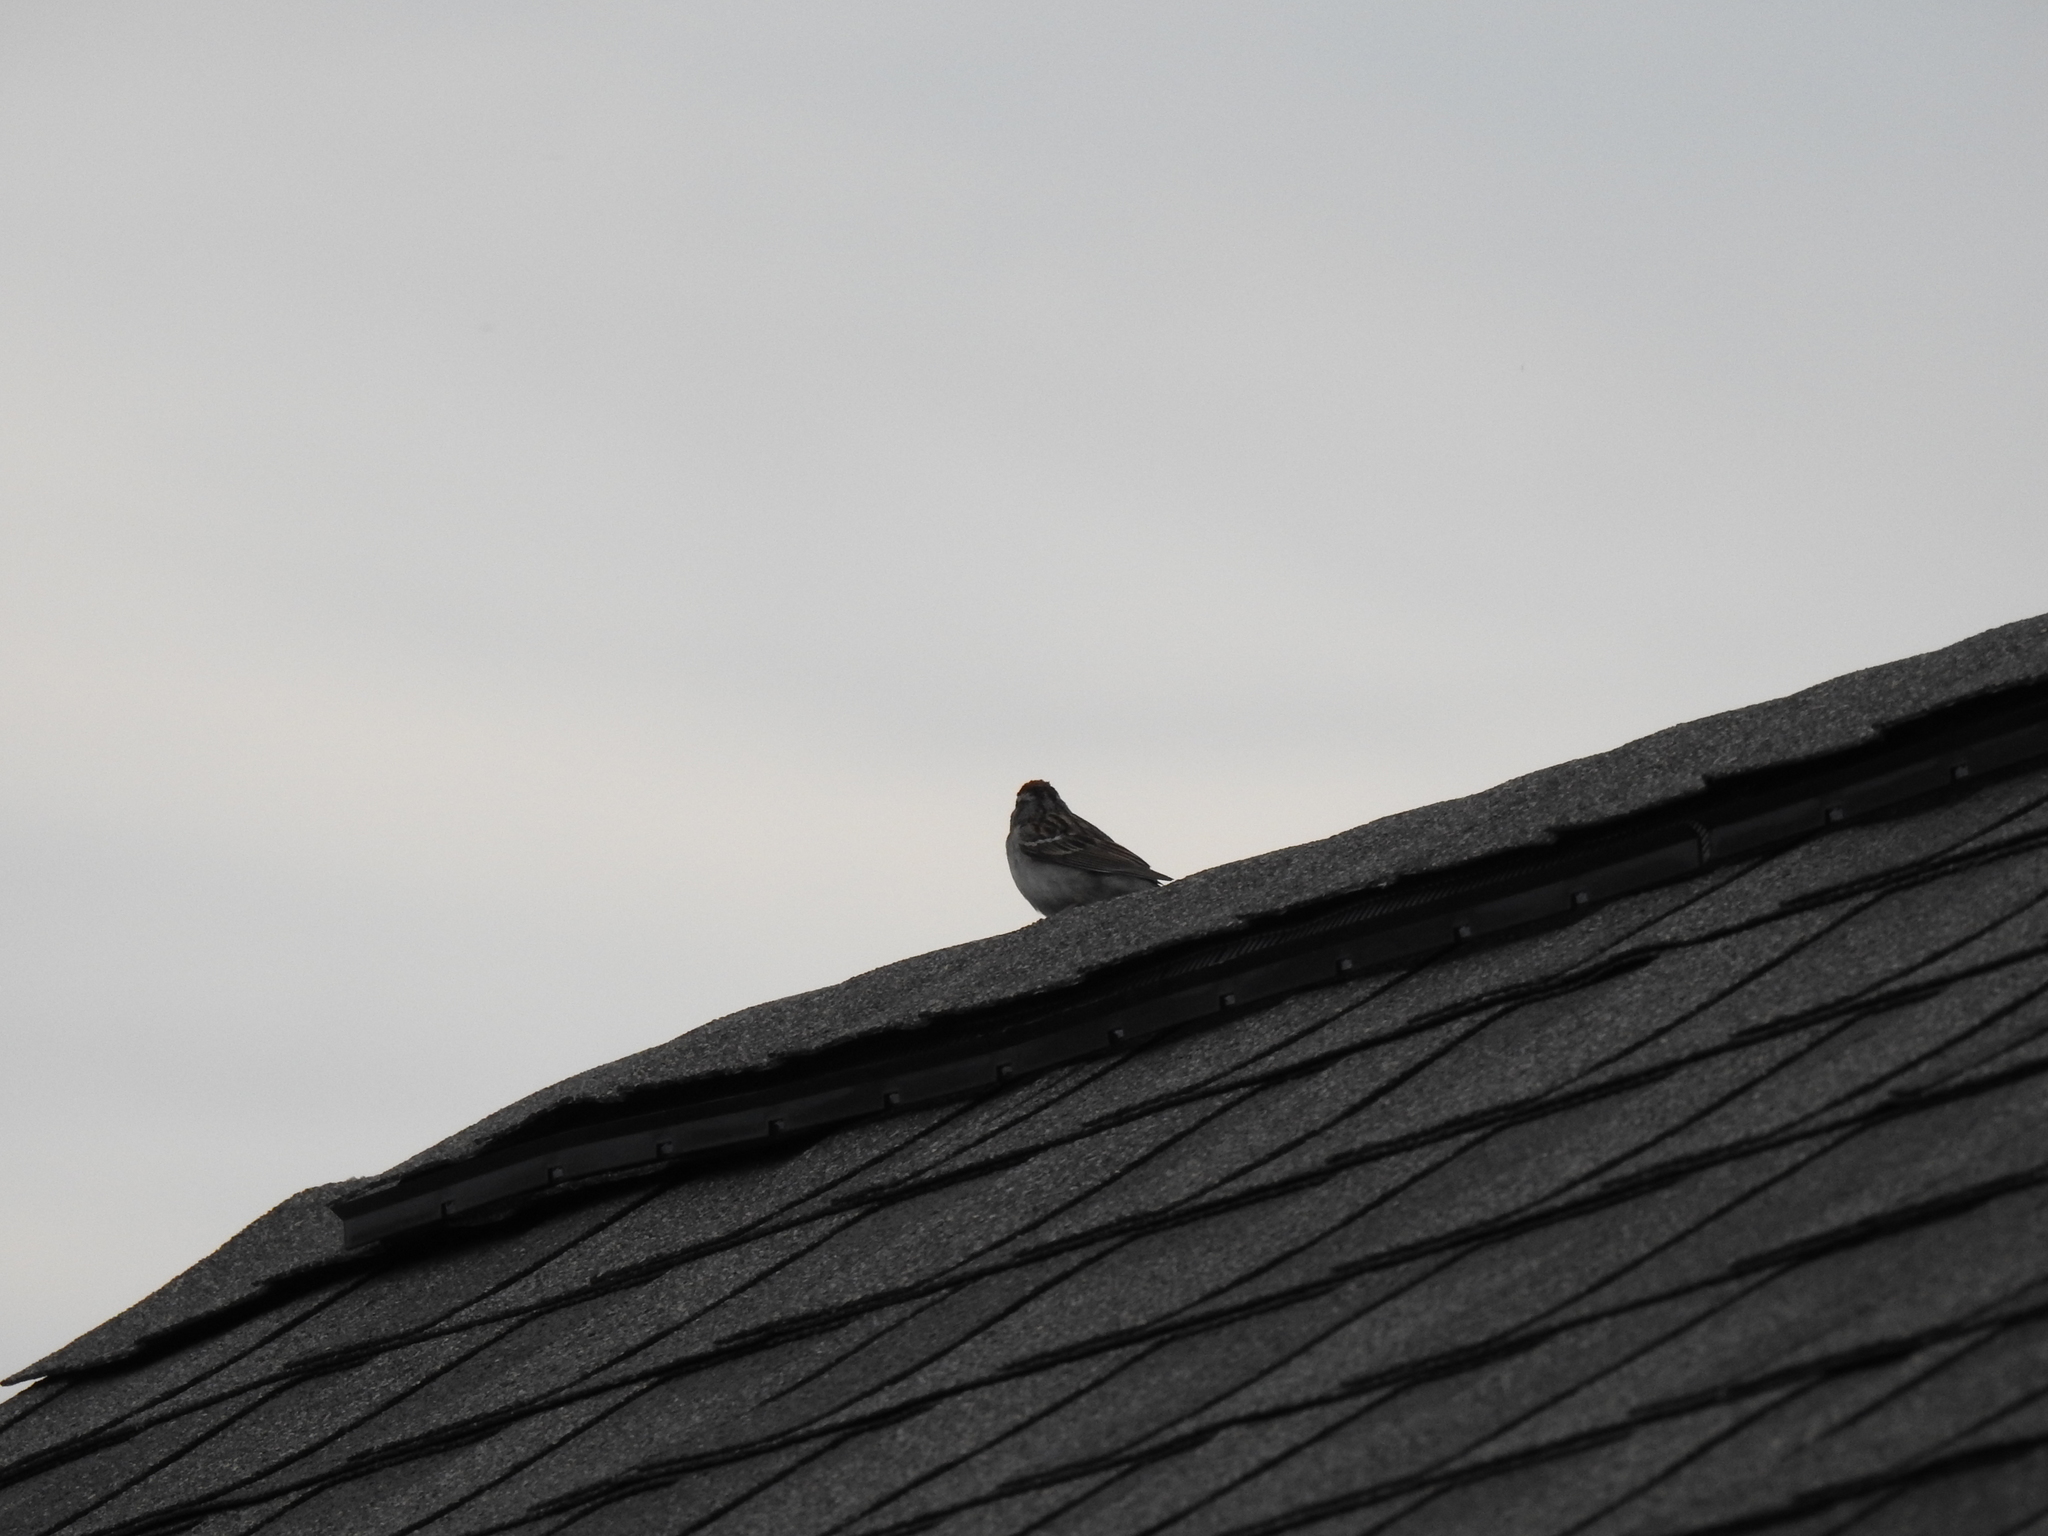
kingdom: Animalia
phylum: Chordata
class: Aves
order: Passeriformes
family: Passerellidae
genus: Spizella
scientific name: Spizella passerina
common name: Chipping sparrow
